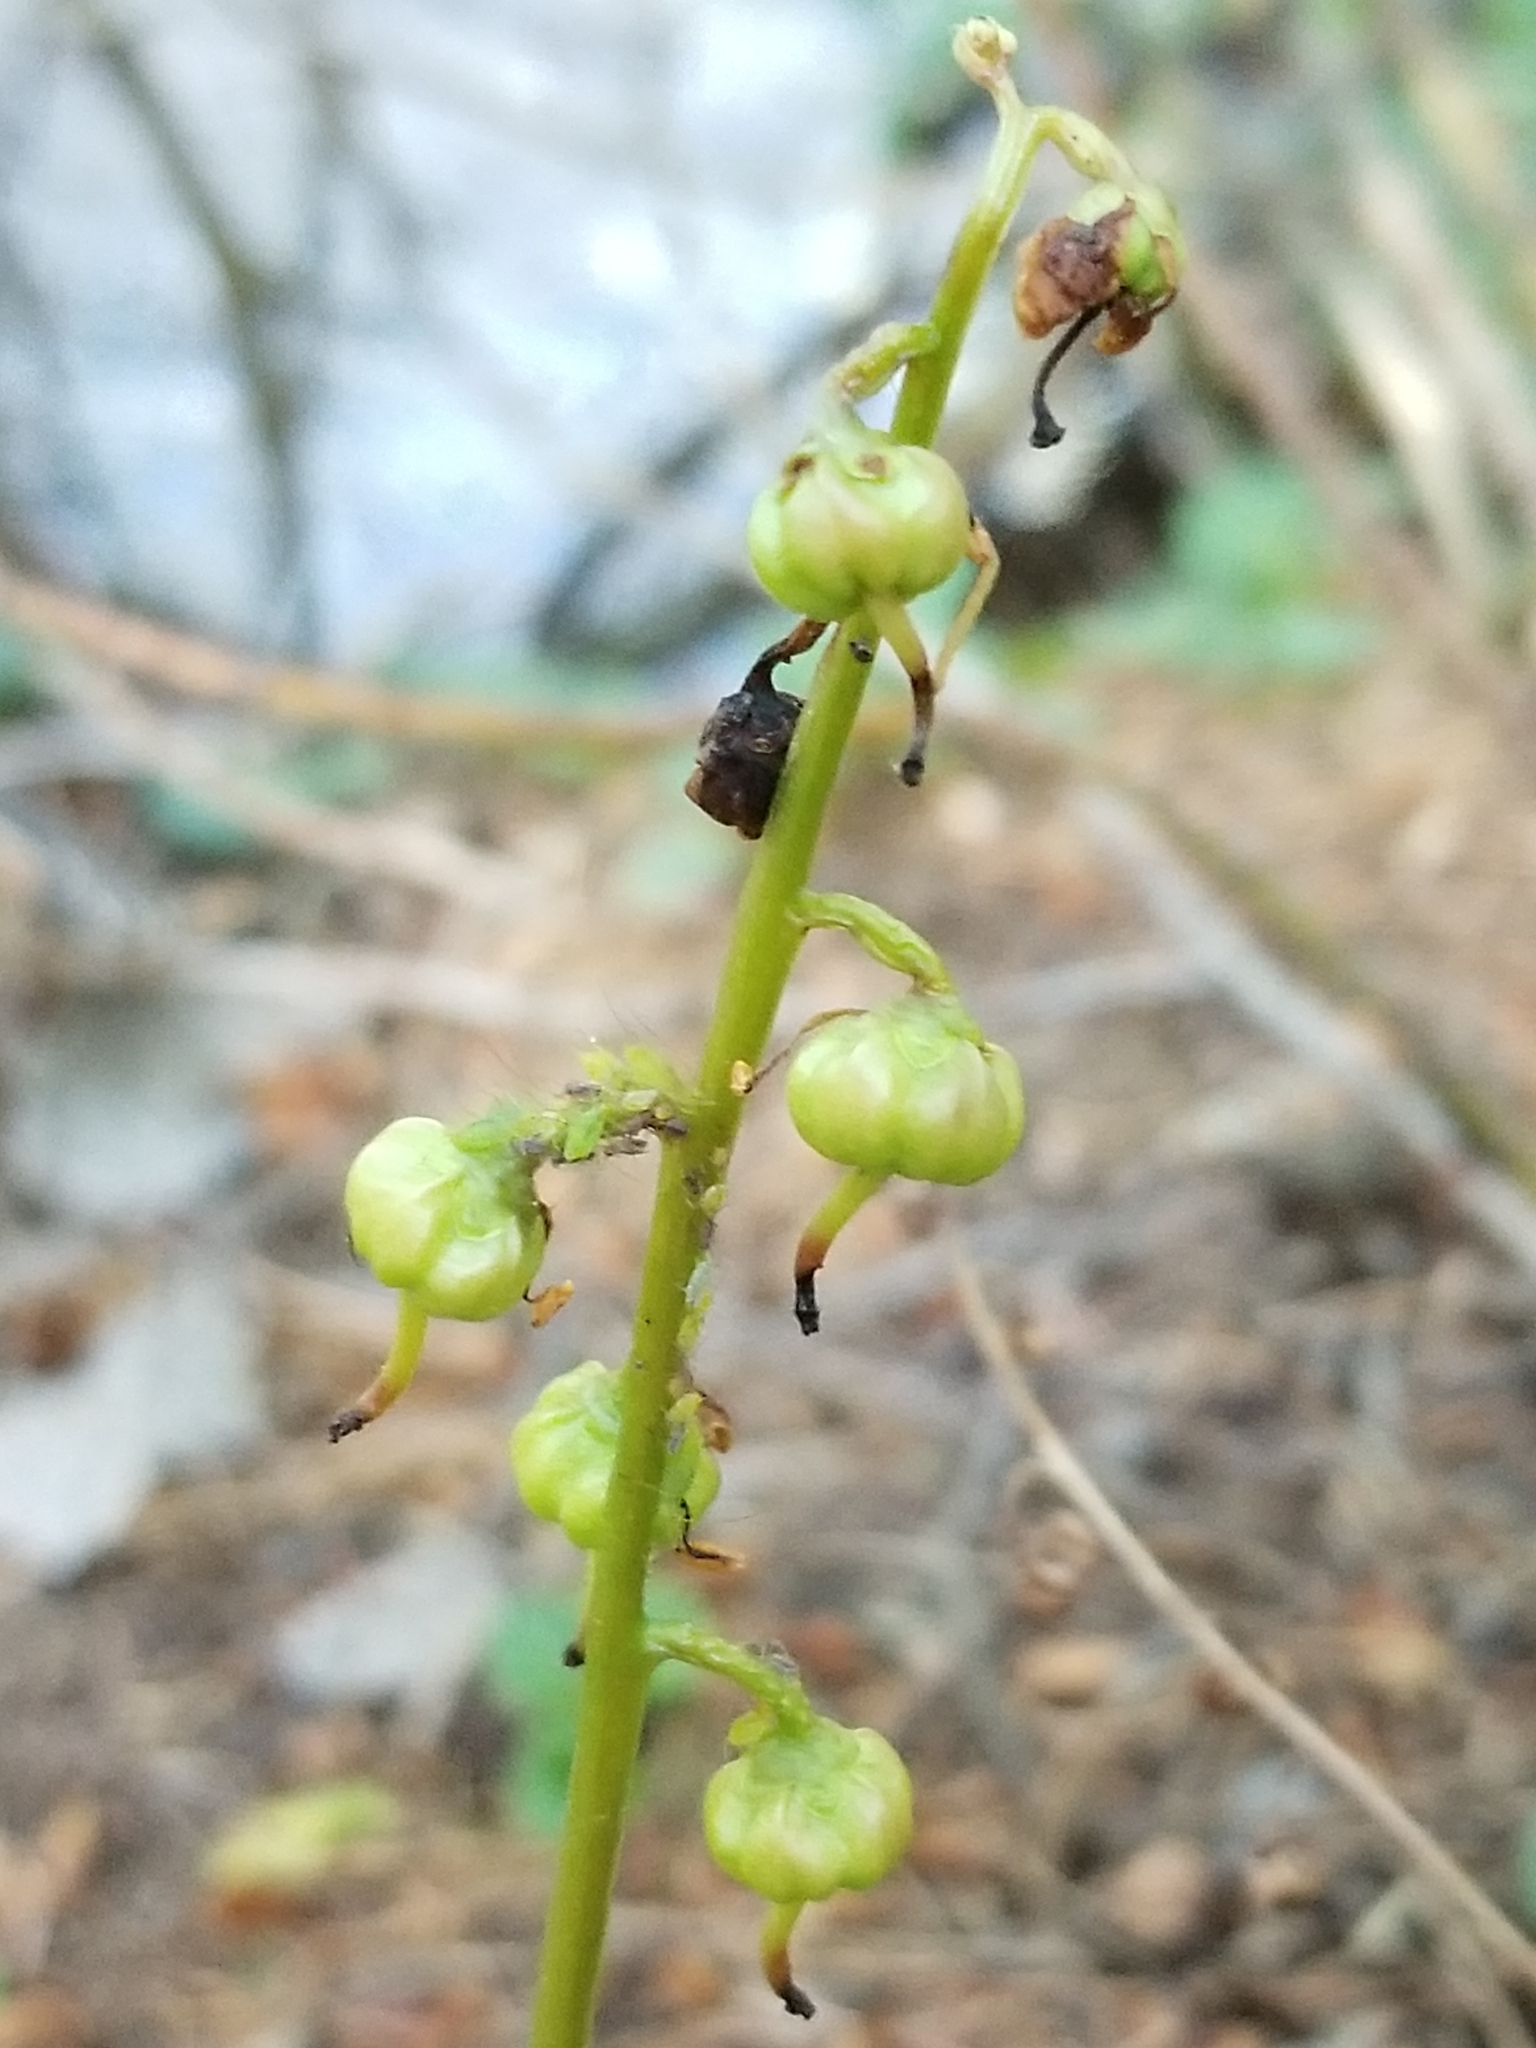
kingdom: Plantae
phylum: Tracheophyta
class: Magnoliopsida
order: Ericales
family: Ericaceae
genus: Pyrola
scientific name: Pyrola chlorantha
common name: Green wintergreen
